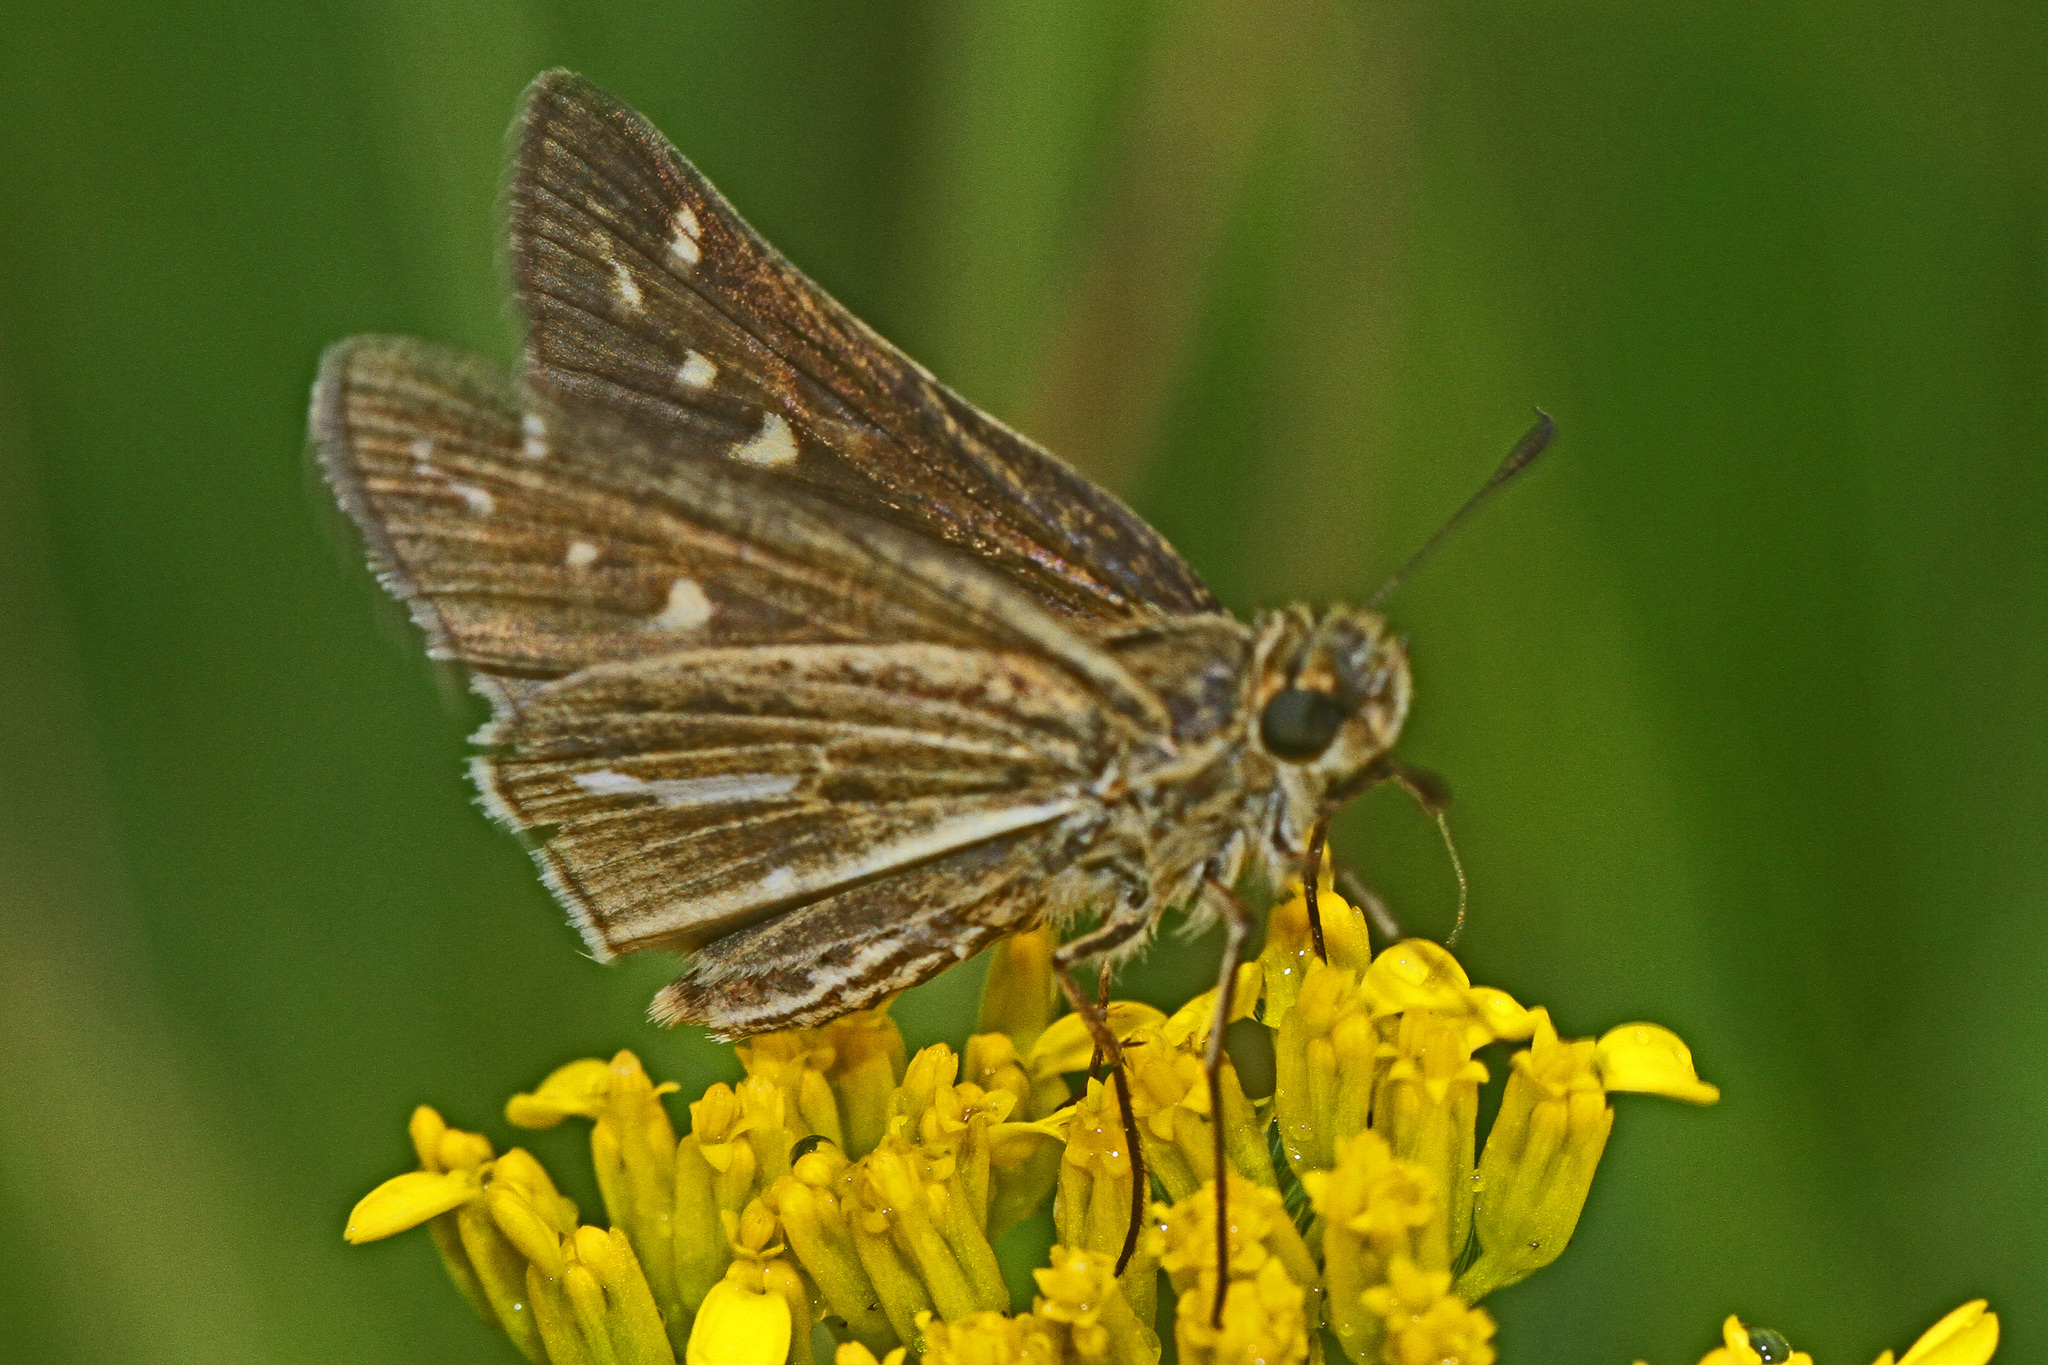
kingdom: Animalia
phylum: Arthropoda
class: Insecta
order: Lepidoptera
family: Hesperiidae
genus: Panoquina
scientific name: Panoquina panoquin
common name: Salt marsh skipper
